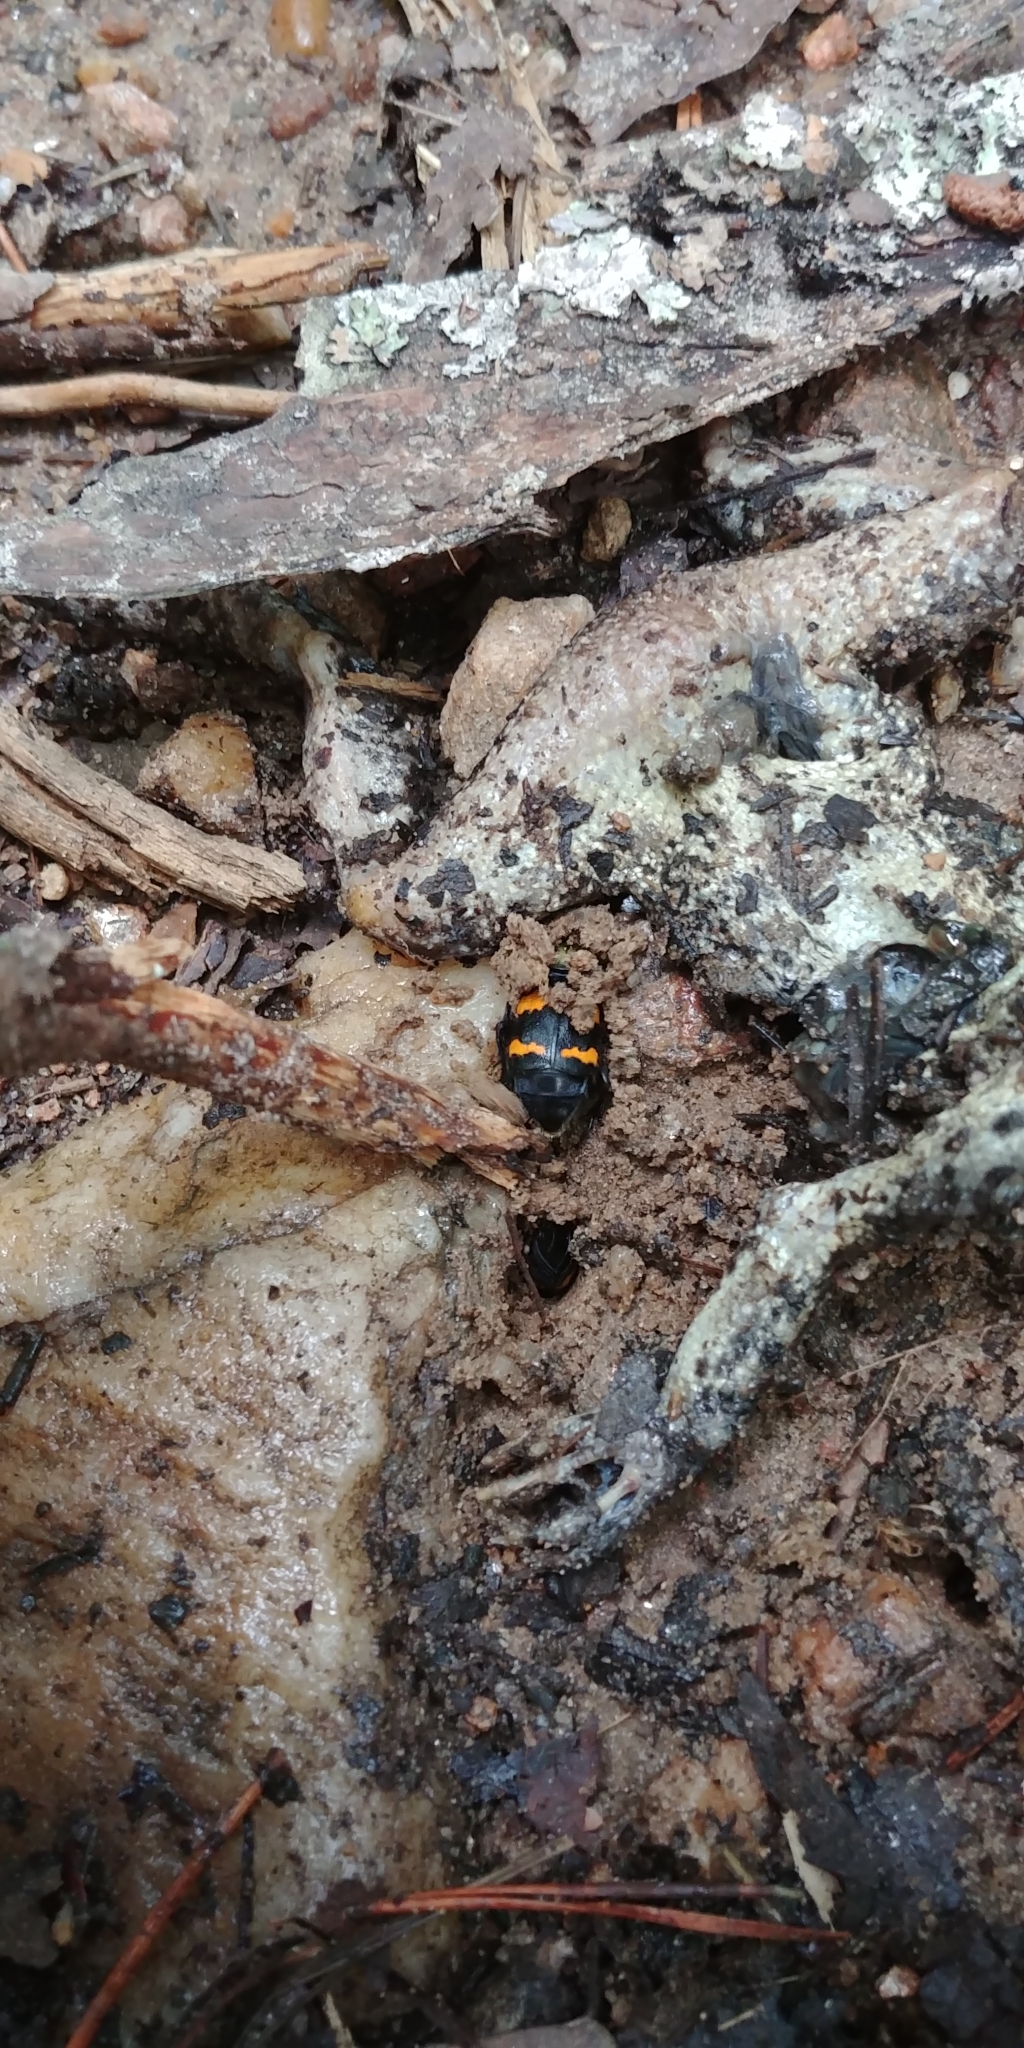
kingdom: Animalia
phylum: Arthropoda
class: Insecta
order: Coleoptera
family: Staphylinidae
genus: Nicrophorus
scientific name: Nicrophorus tomentosus
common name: Tomentose burying beetle
